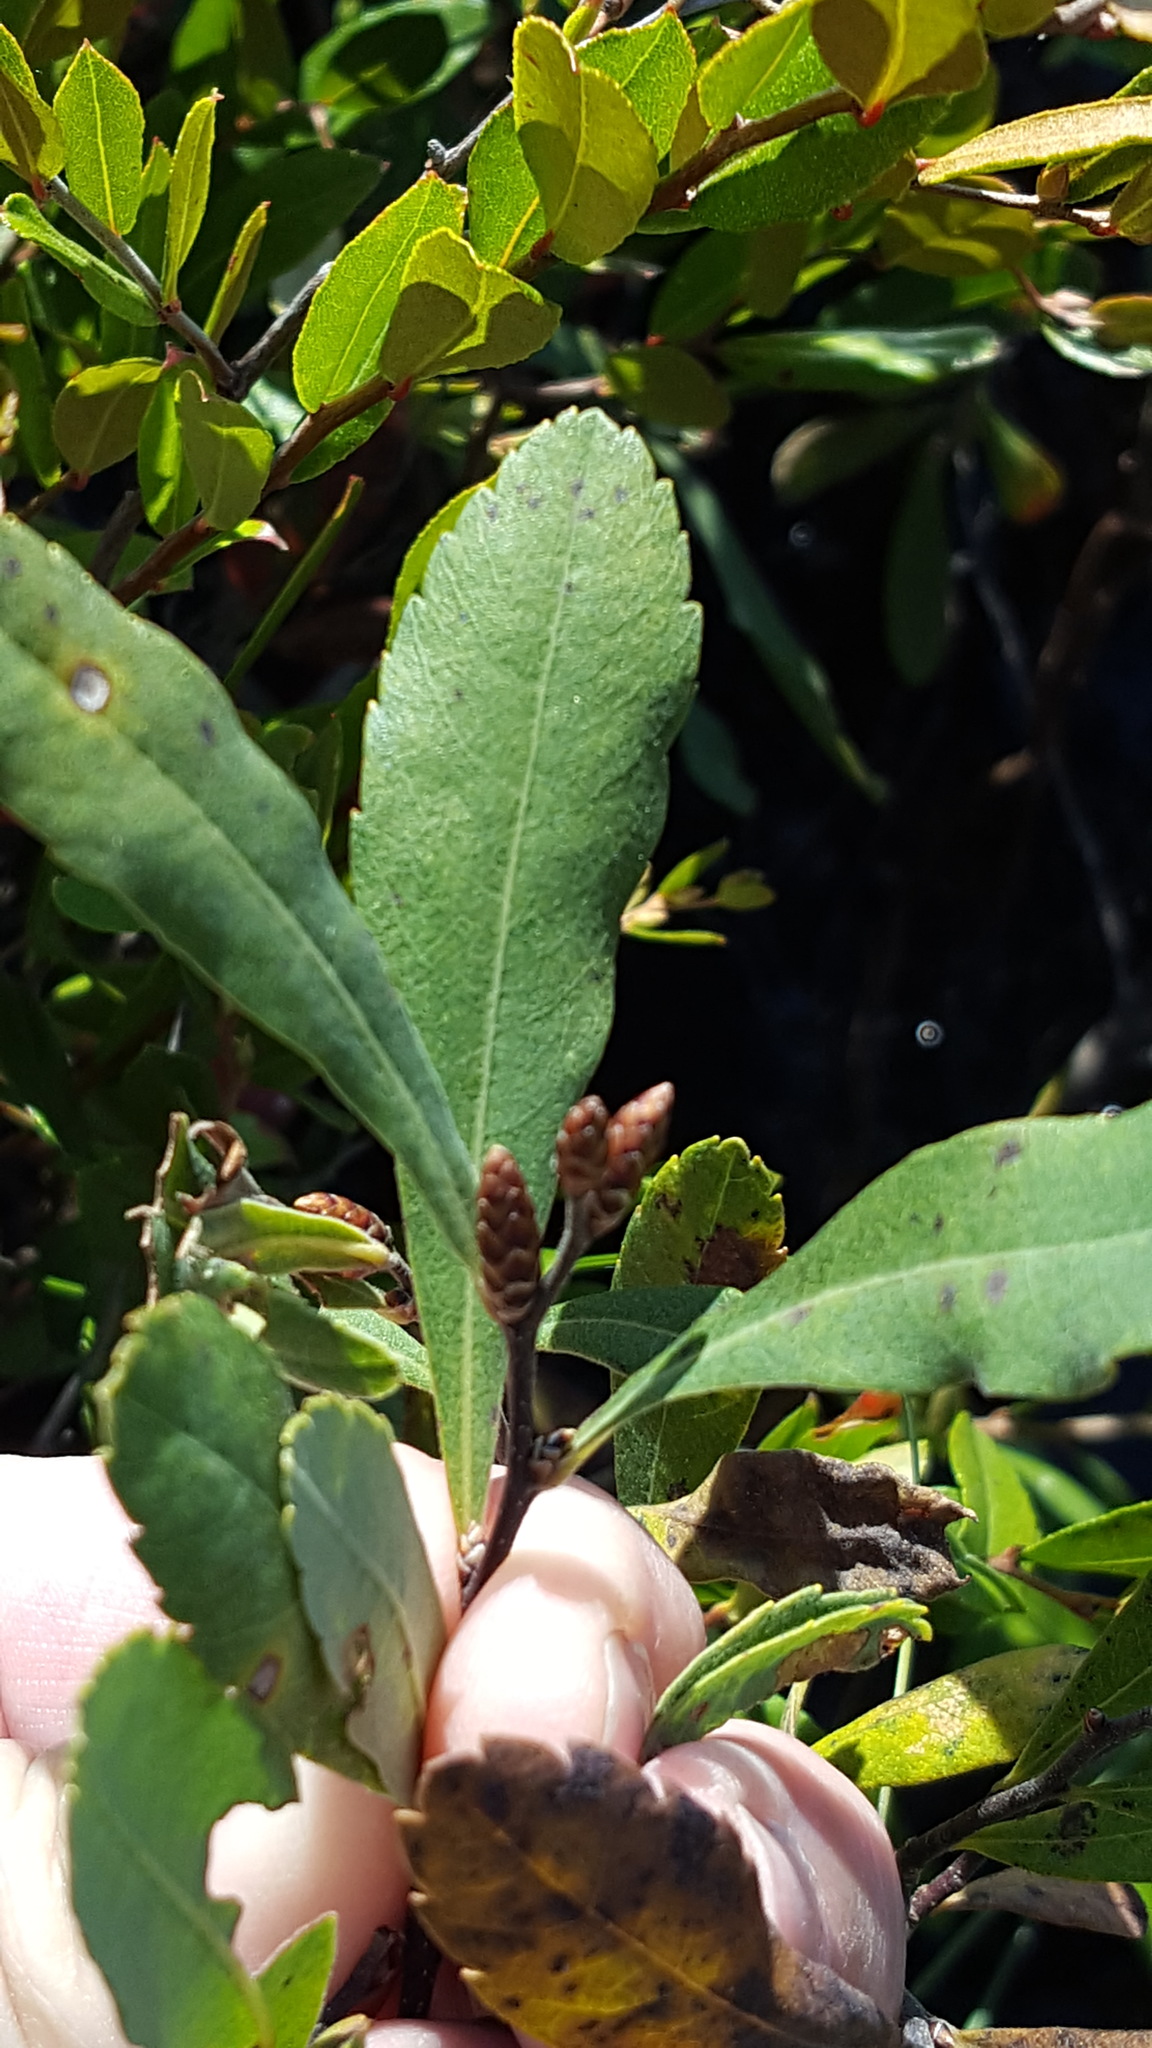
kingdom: Plantae
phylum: Tracheophyta
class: Magnoliopsida
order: Fagales
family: Myricaceae
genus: Myrica
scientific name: Myrica gale
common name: Sweet gale
